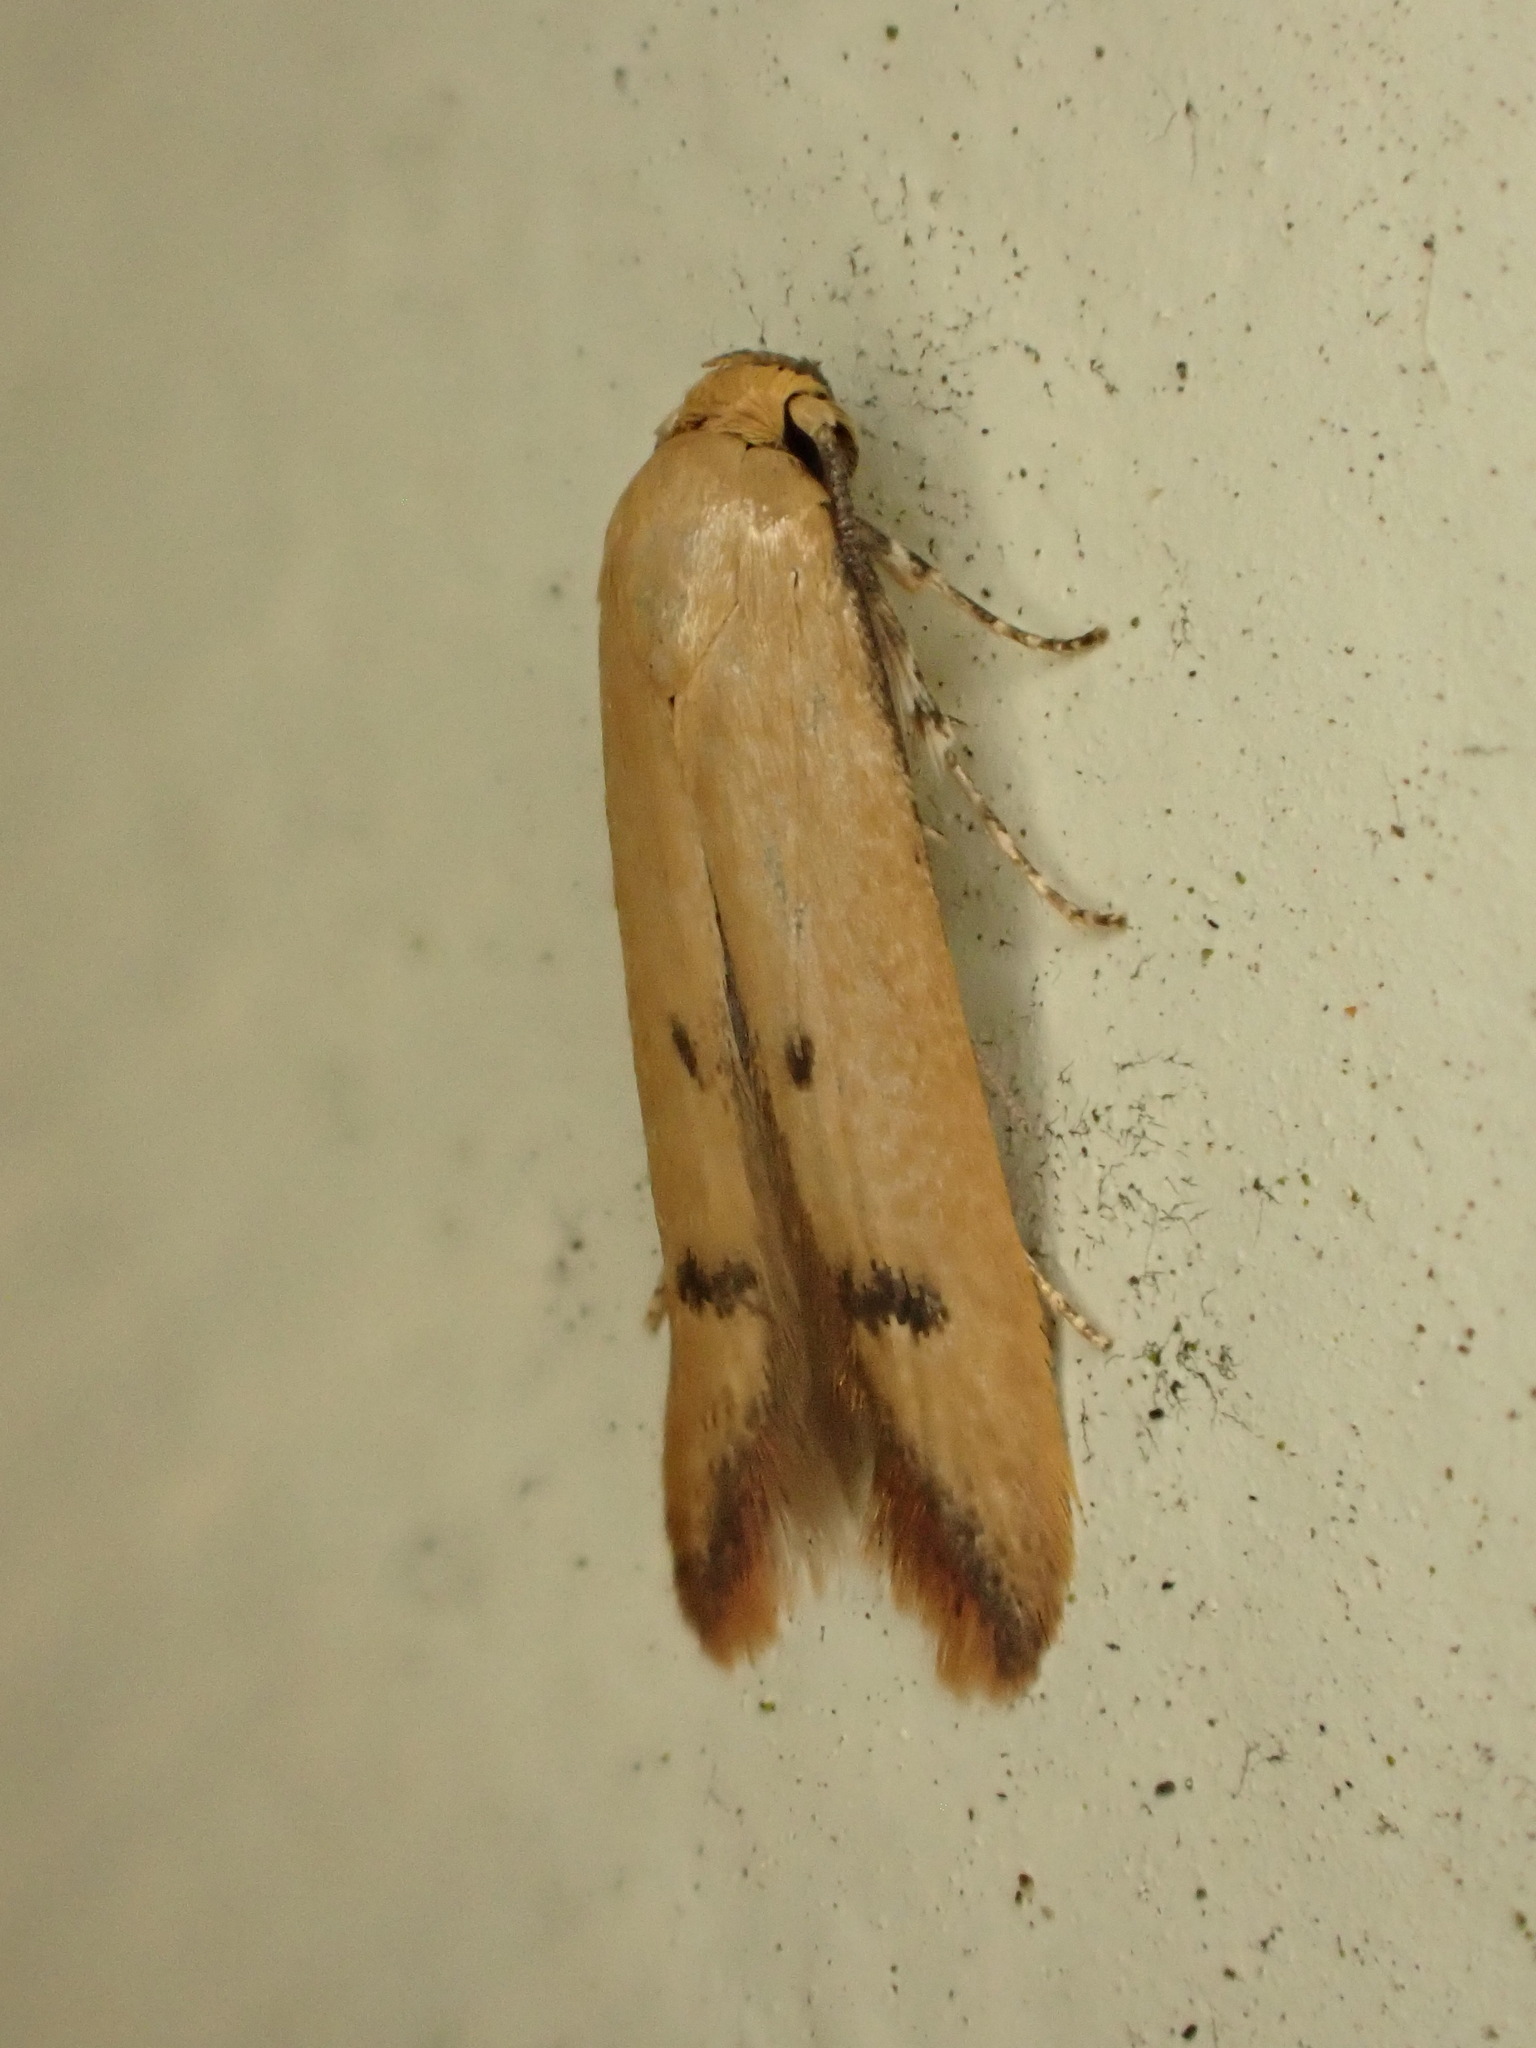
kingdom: Animalia
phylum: Arthropoda
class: Insecta
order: Lepidoptera
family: Oecophoridae
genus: Tachystola
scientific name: Tachystola hemisema
